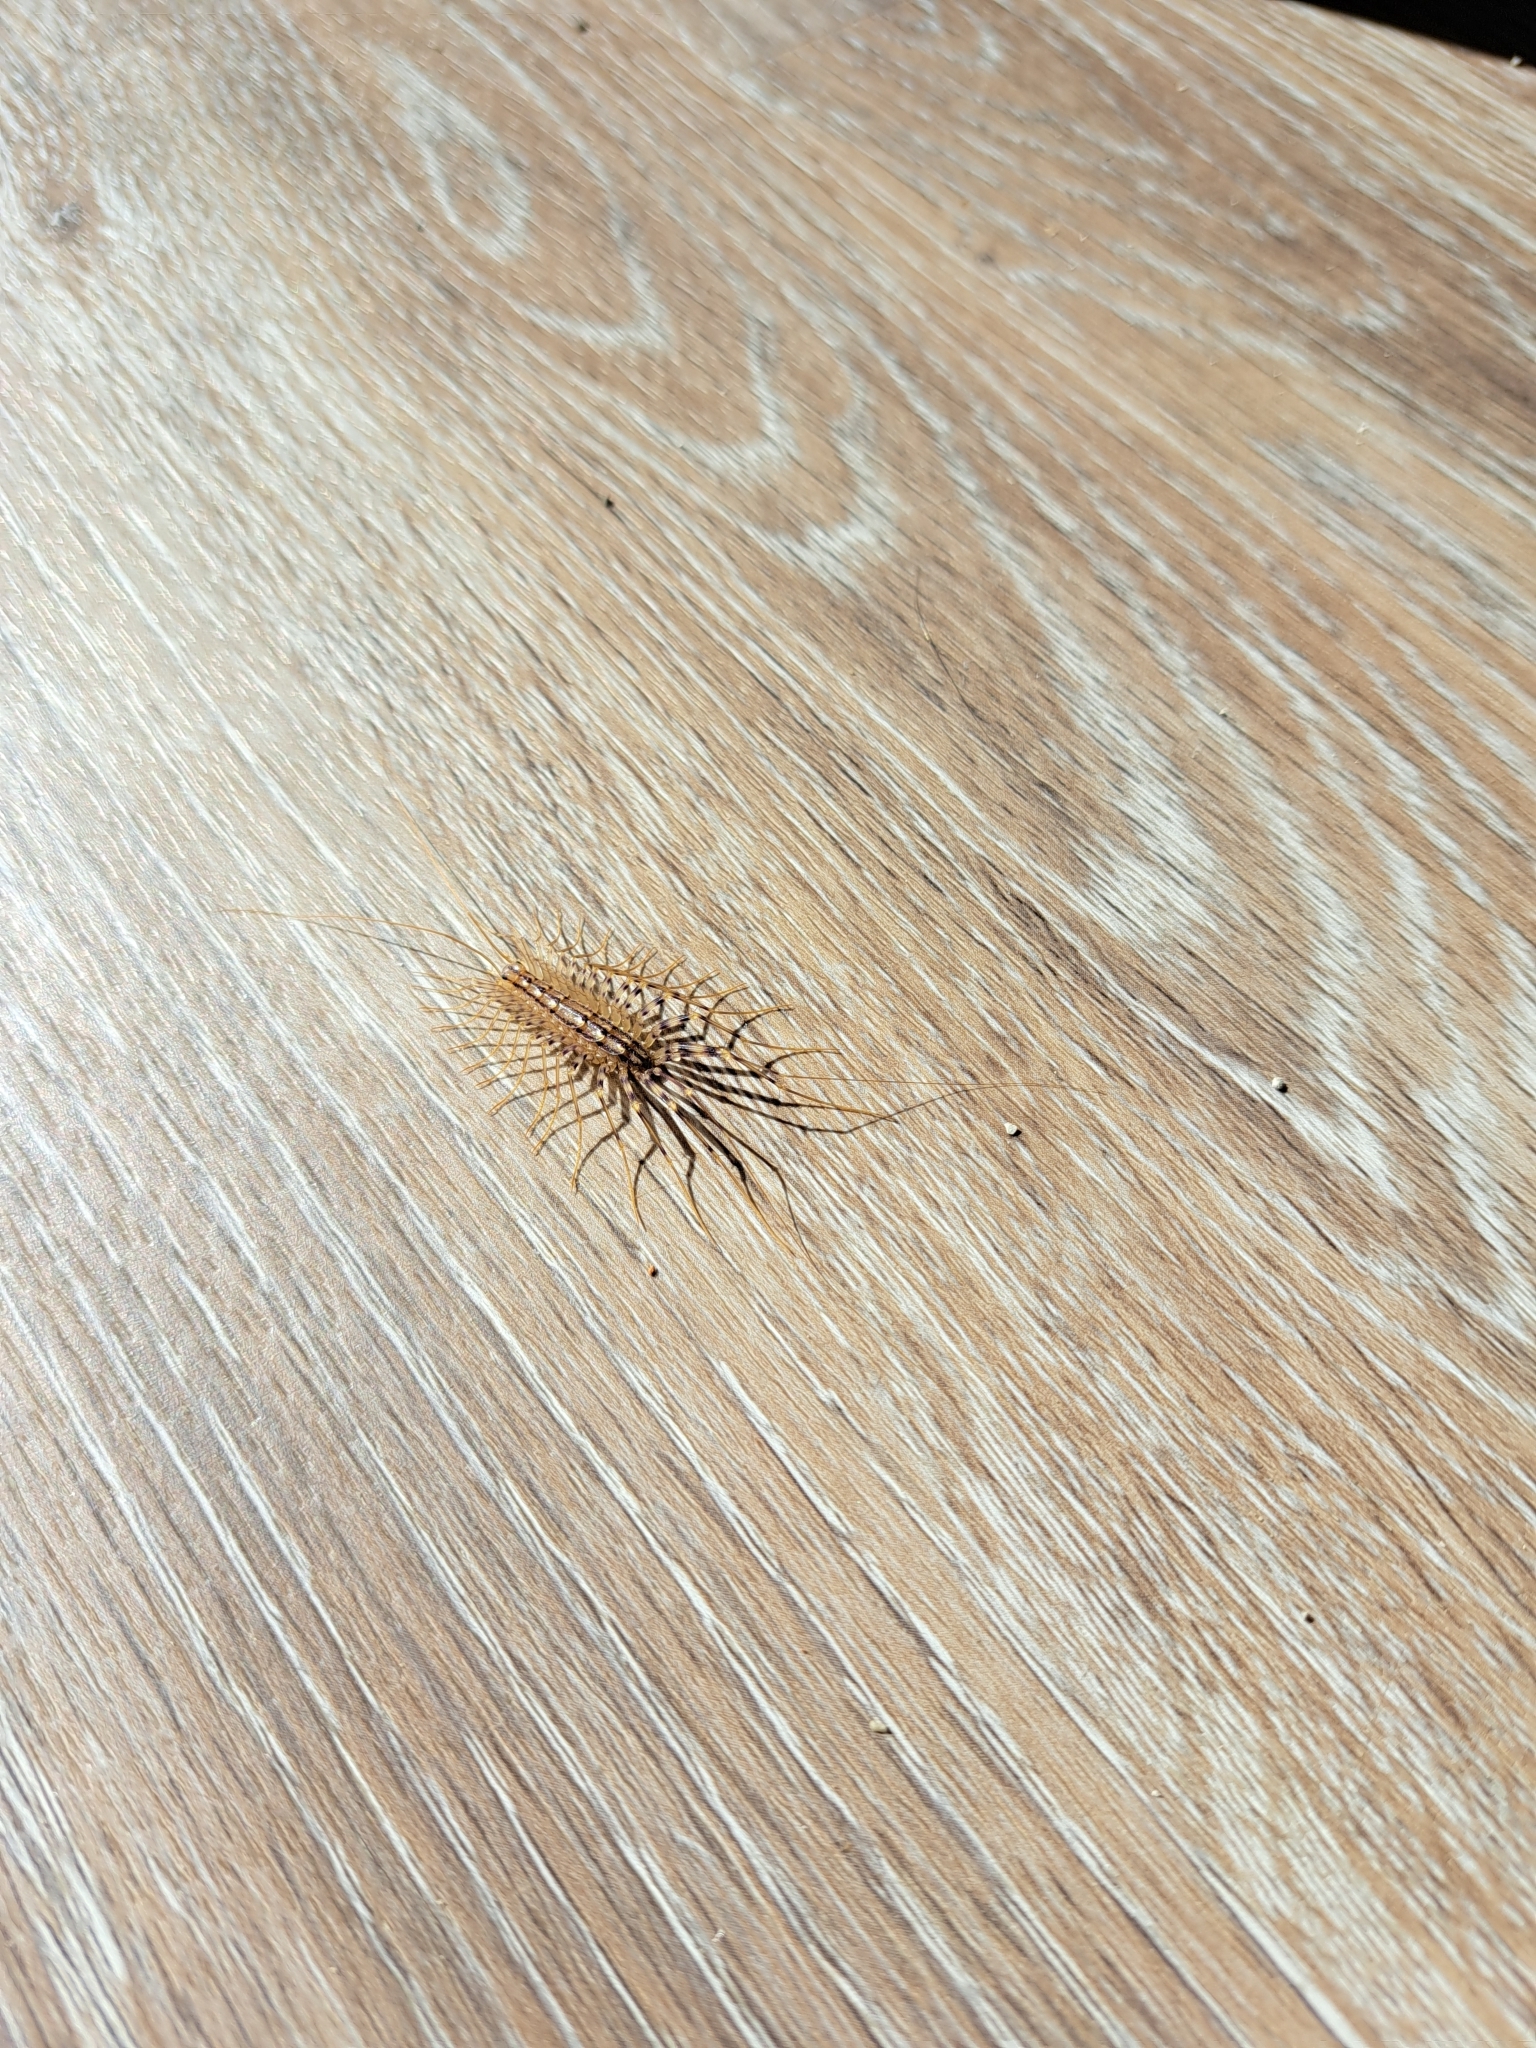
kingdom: Animalia
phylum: Arthropoda
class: Chilopoda
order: Scutigeromorpha
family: Scutigeridae
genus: Scutigera
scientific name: Scutigera coleoptrata
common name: House centipede
